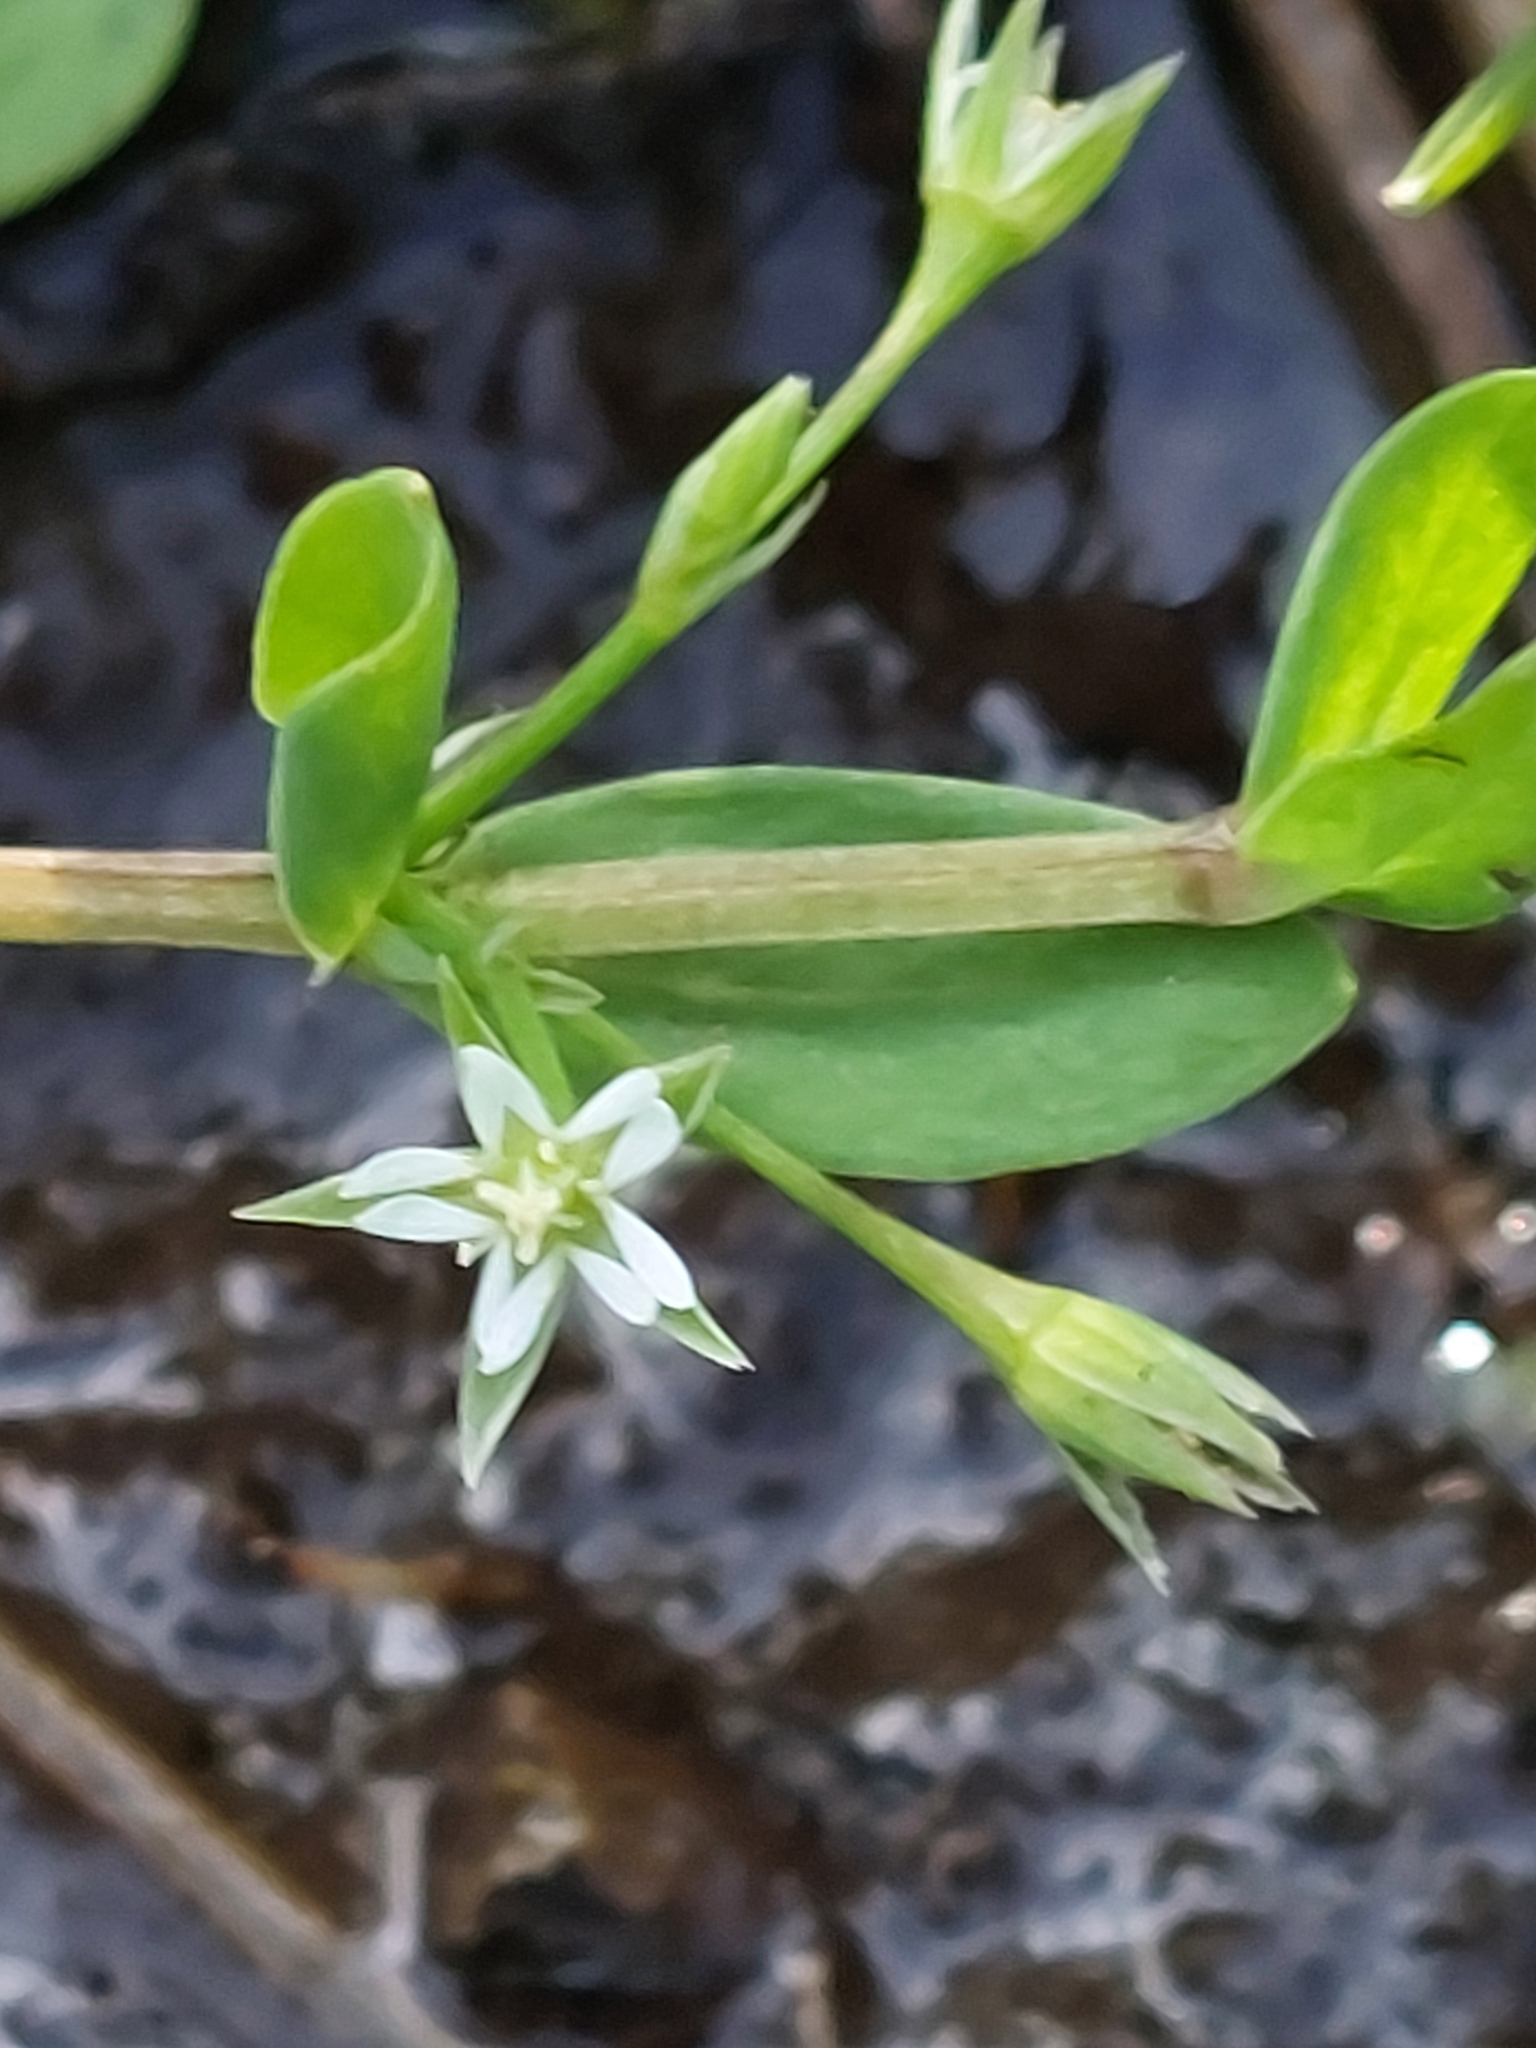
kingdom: Plantae
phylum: Tracheophyta
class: Magnoliopsida
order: Caryophyllales
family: Caryophyllaceae
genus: Stellaria
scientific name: Stellaria alsine
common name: Bog stitchwort
